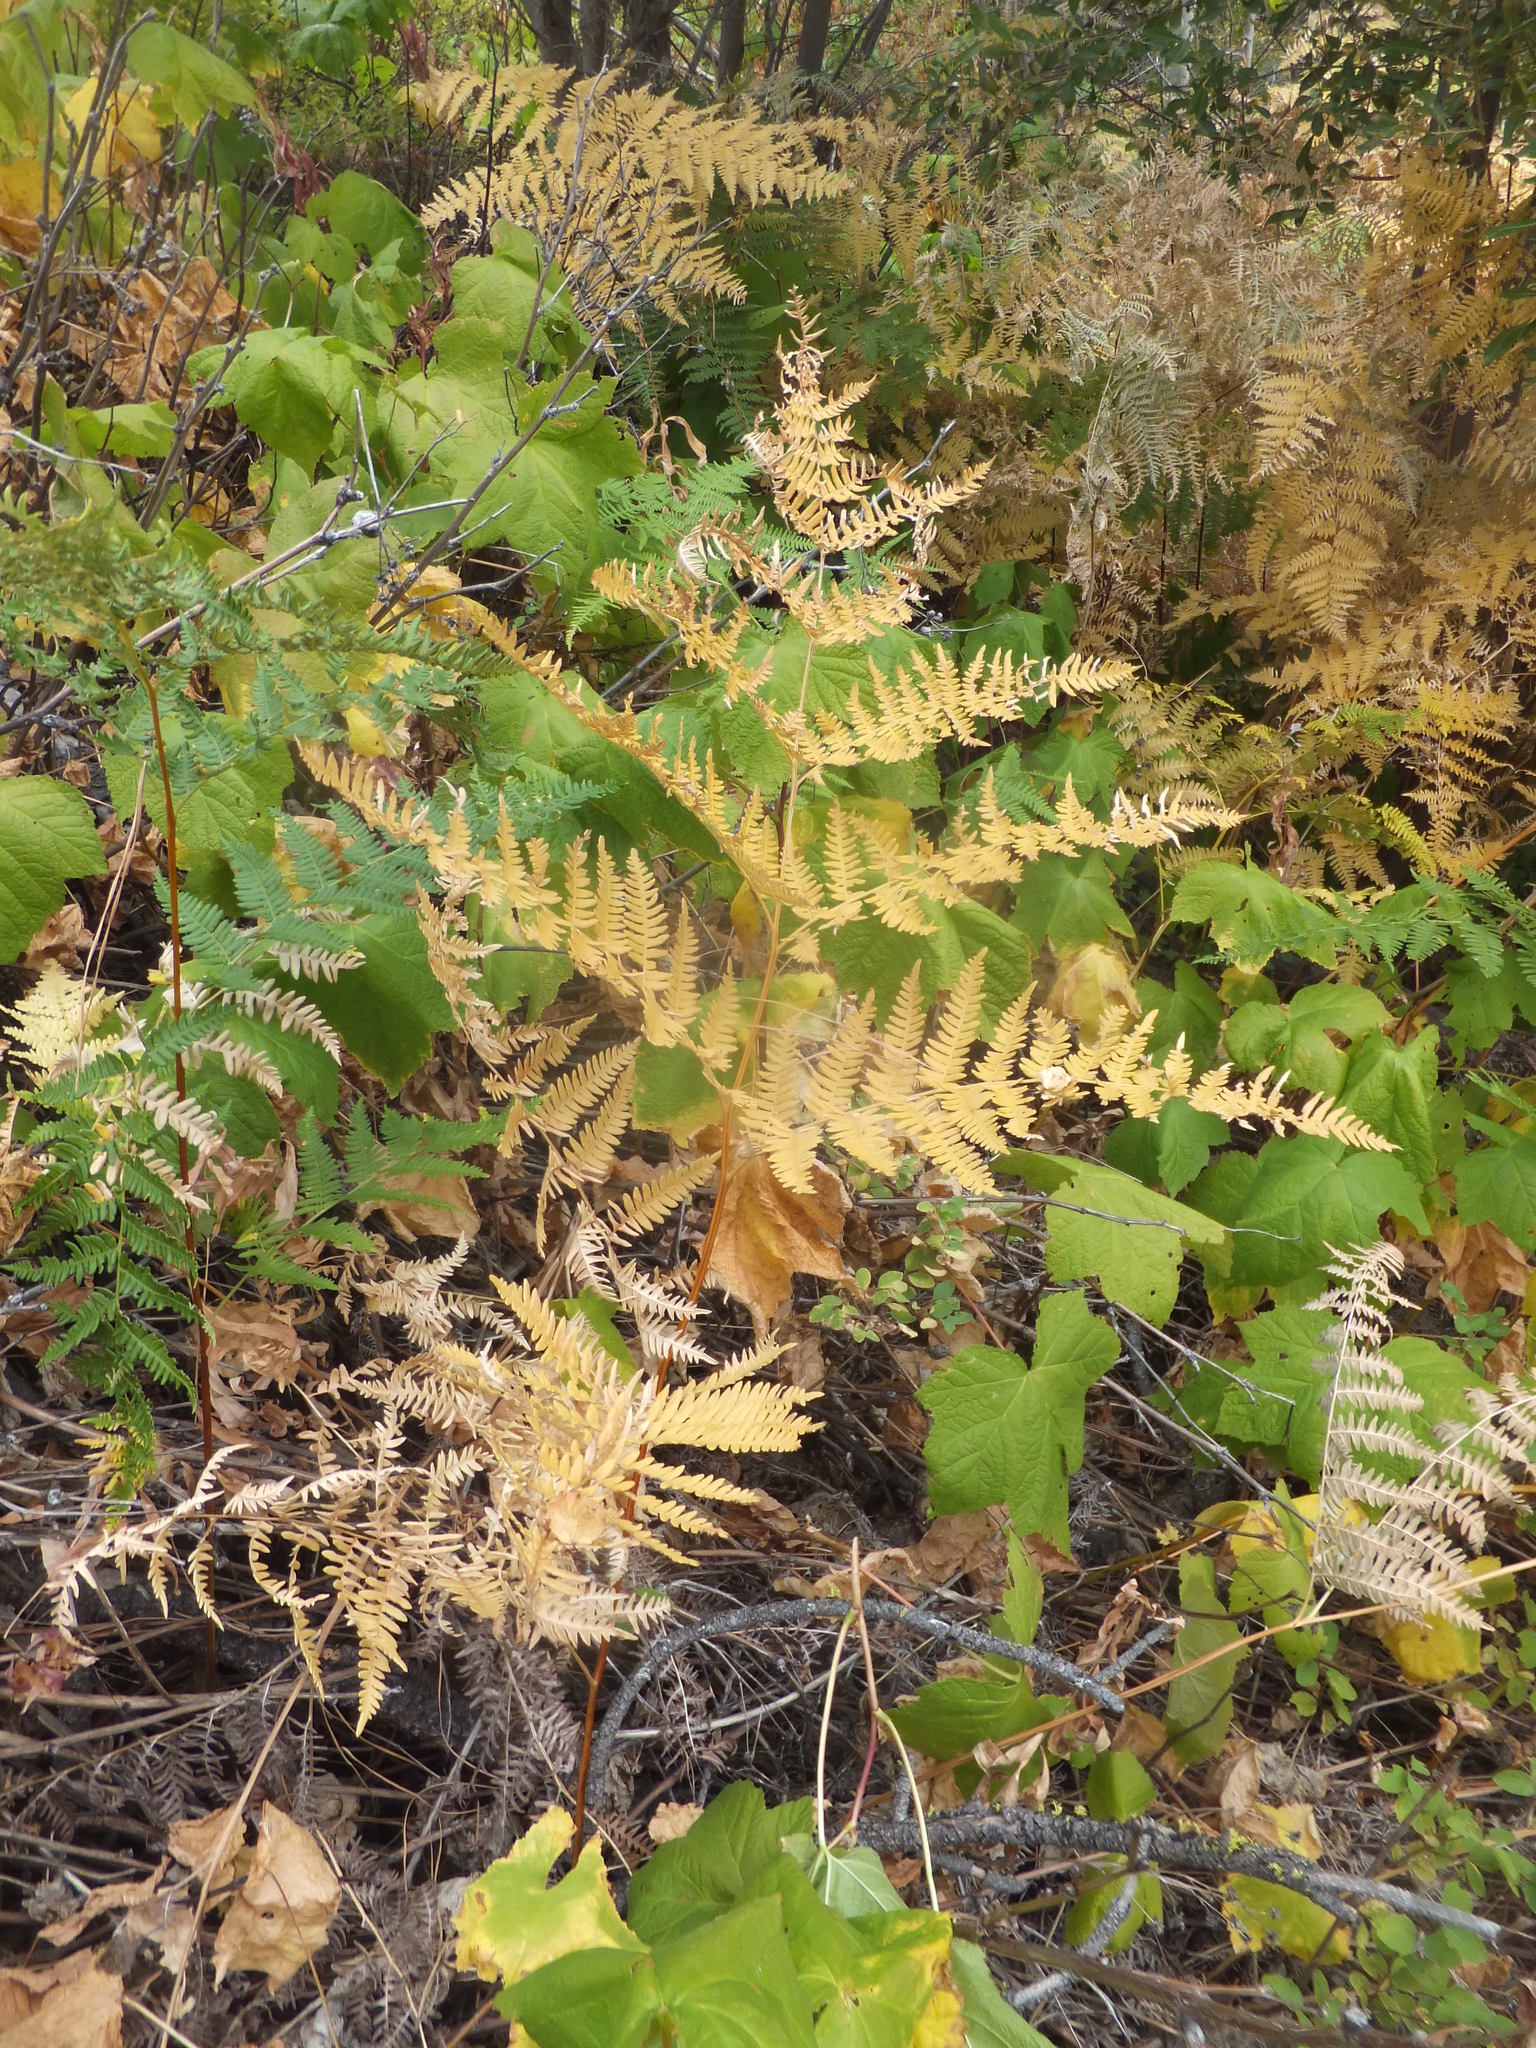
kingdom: Plantae
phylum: Tracheophyta
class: Polypodiopsida
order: Polypodiales
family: Dennstaedtiaceae
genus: Pteridium
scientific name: Pteridium aquilinum
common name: Bracken
